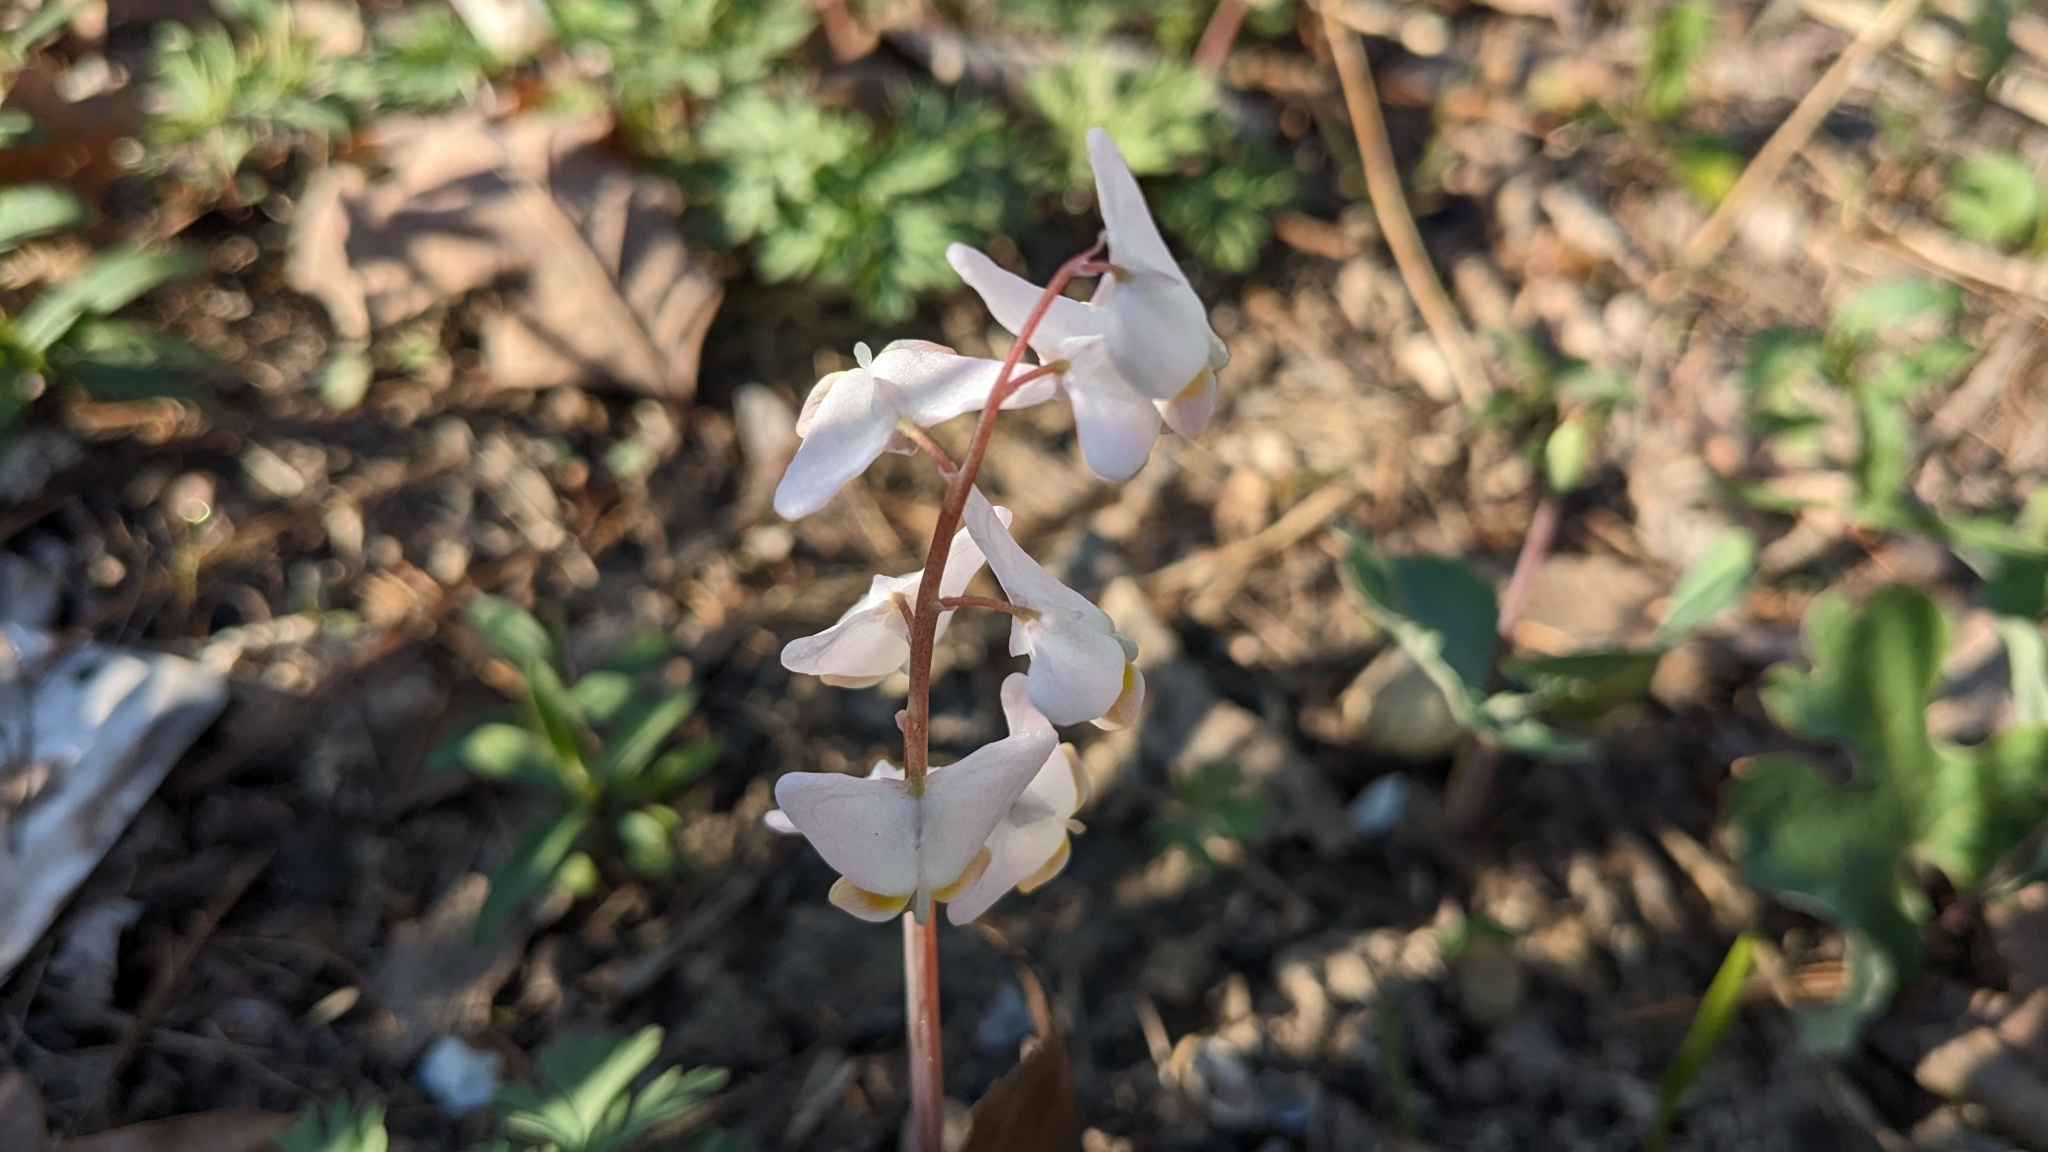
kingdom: Plantae
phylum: Tracheophyta
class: Magnoliopsida
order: Ranunculales
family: Papaveraceae
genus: Dicentra
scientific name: Dicentra cucullaria
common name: Dutchman's breeches
